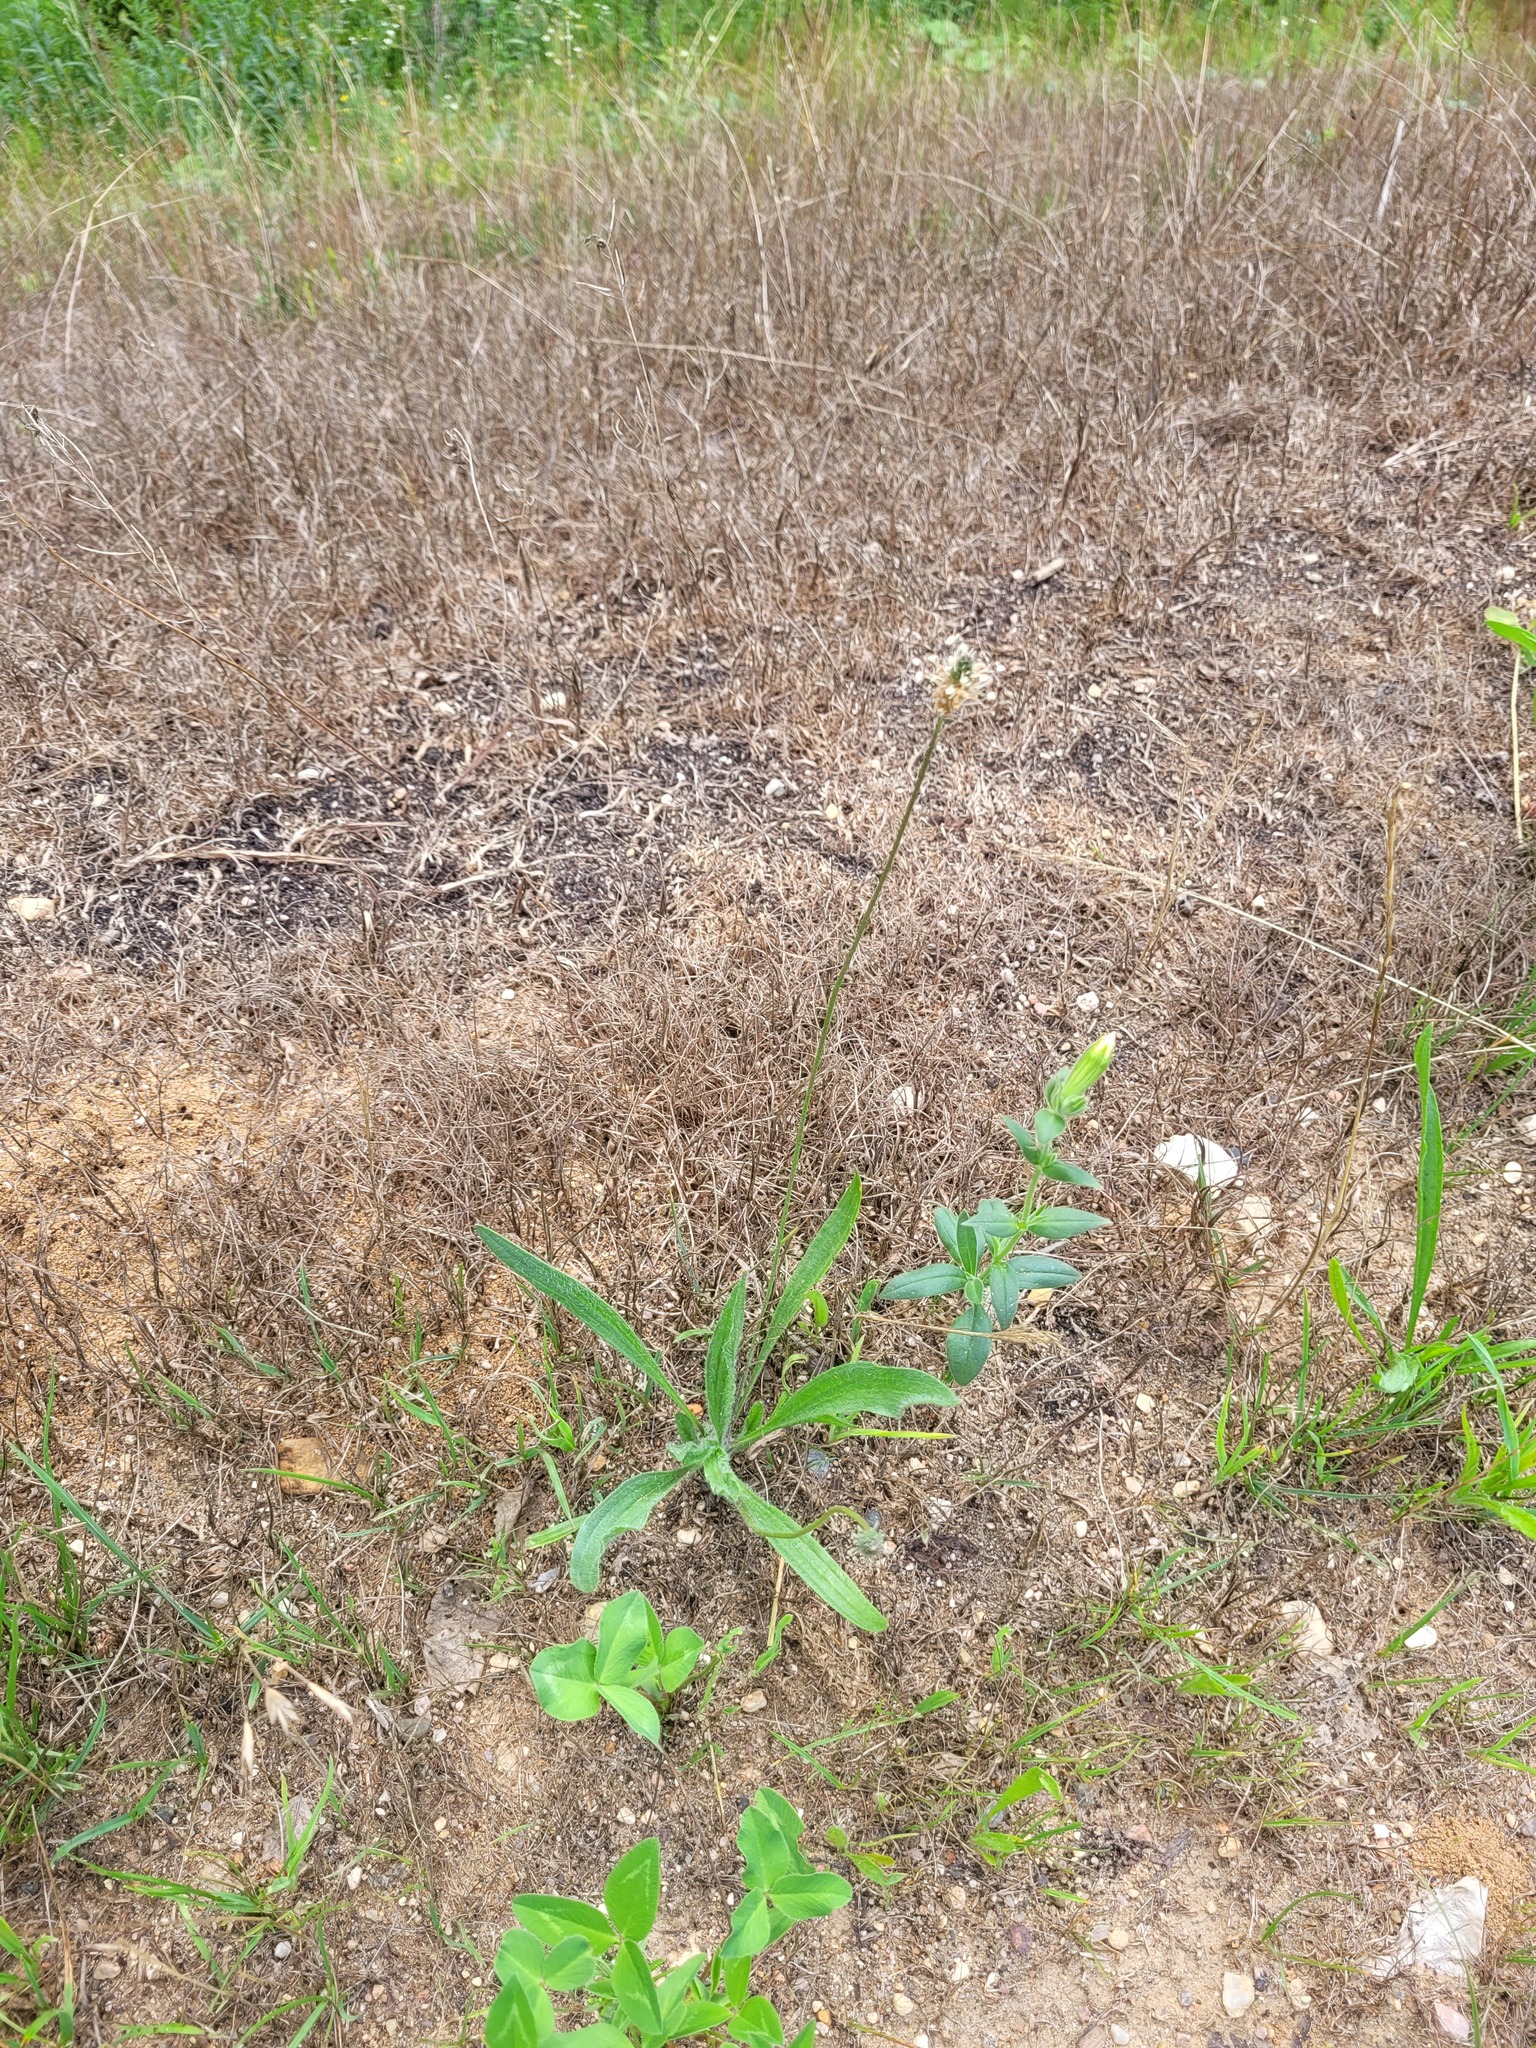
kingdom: Plantae
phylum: Tracheophyta
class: Magnoliopsida
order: Lamiales
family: Plantaginaceae
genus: Plantago
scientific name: Plantago lanceolata
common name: Ribwort plantain
